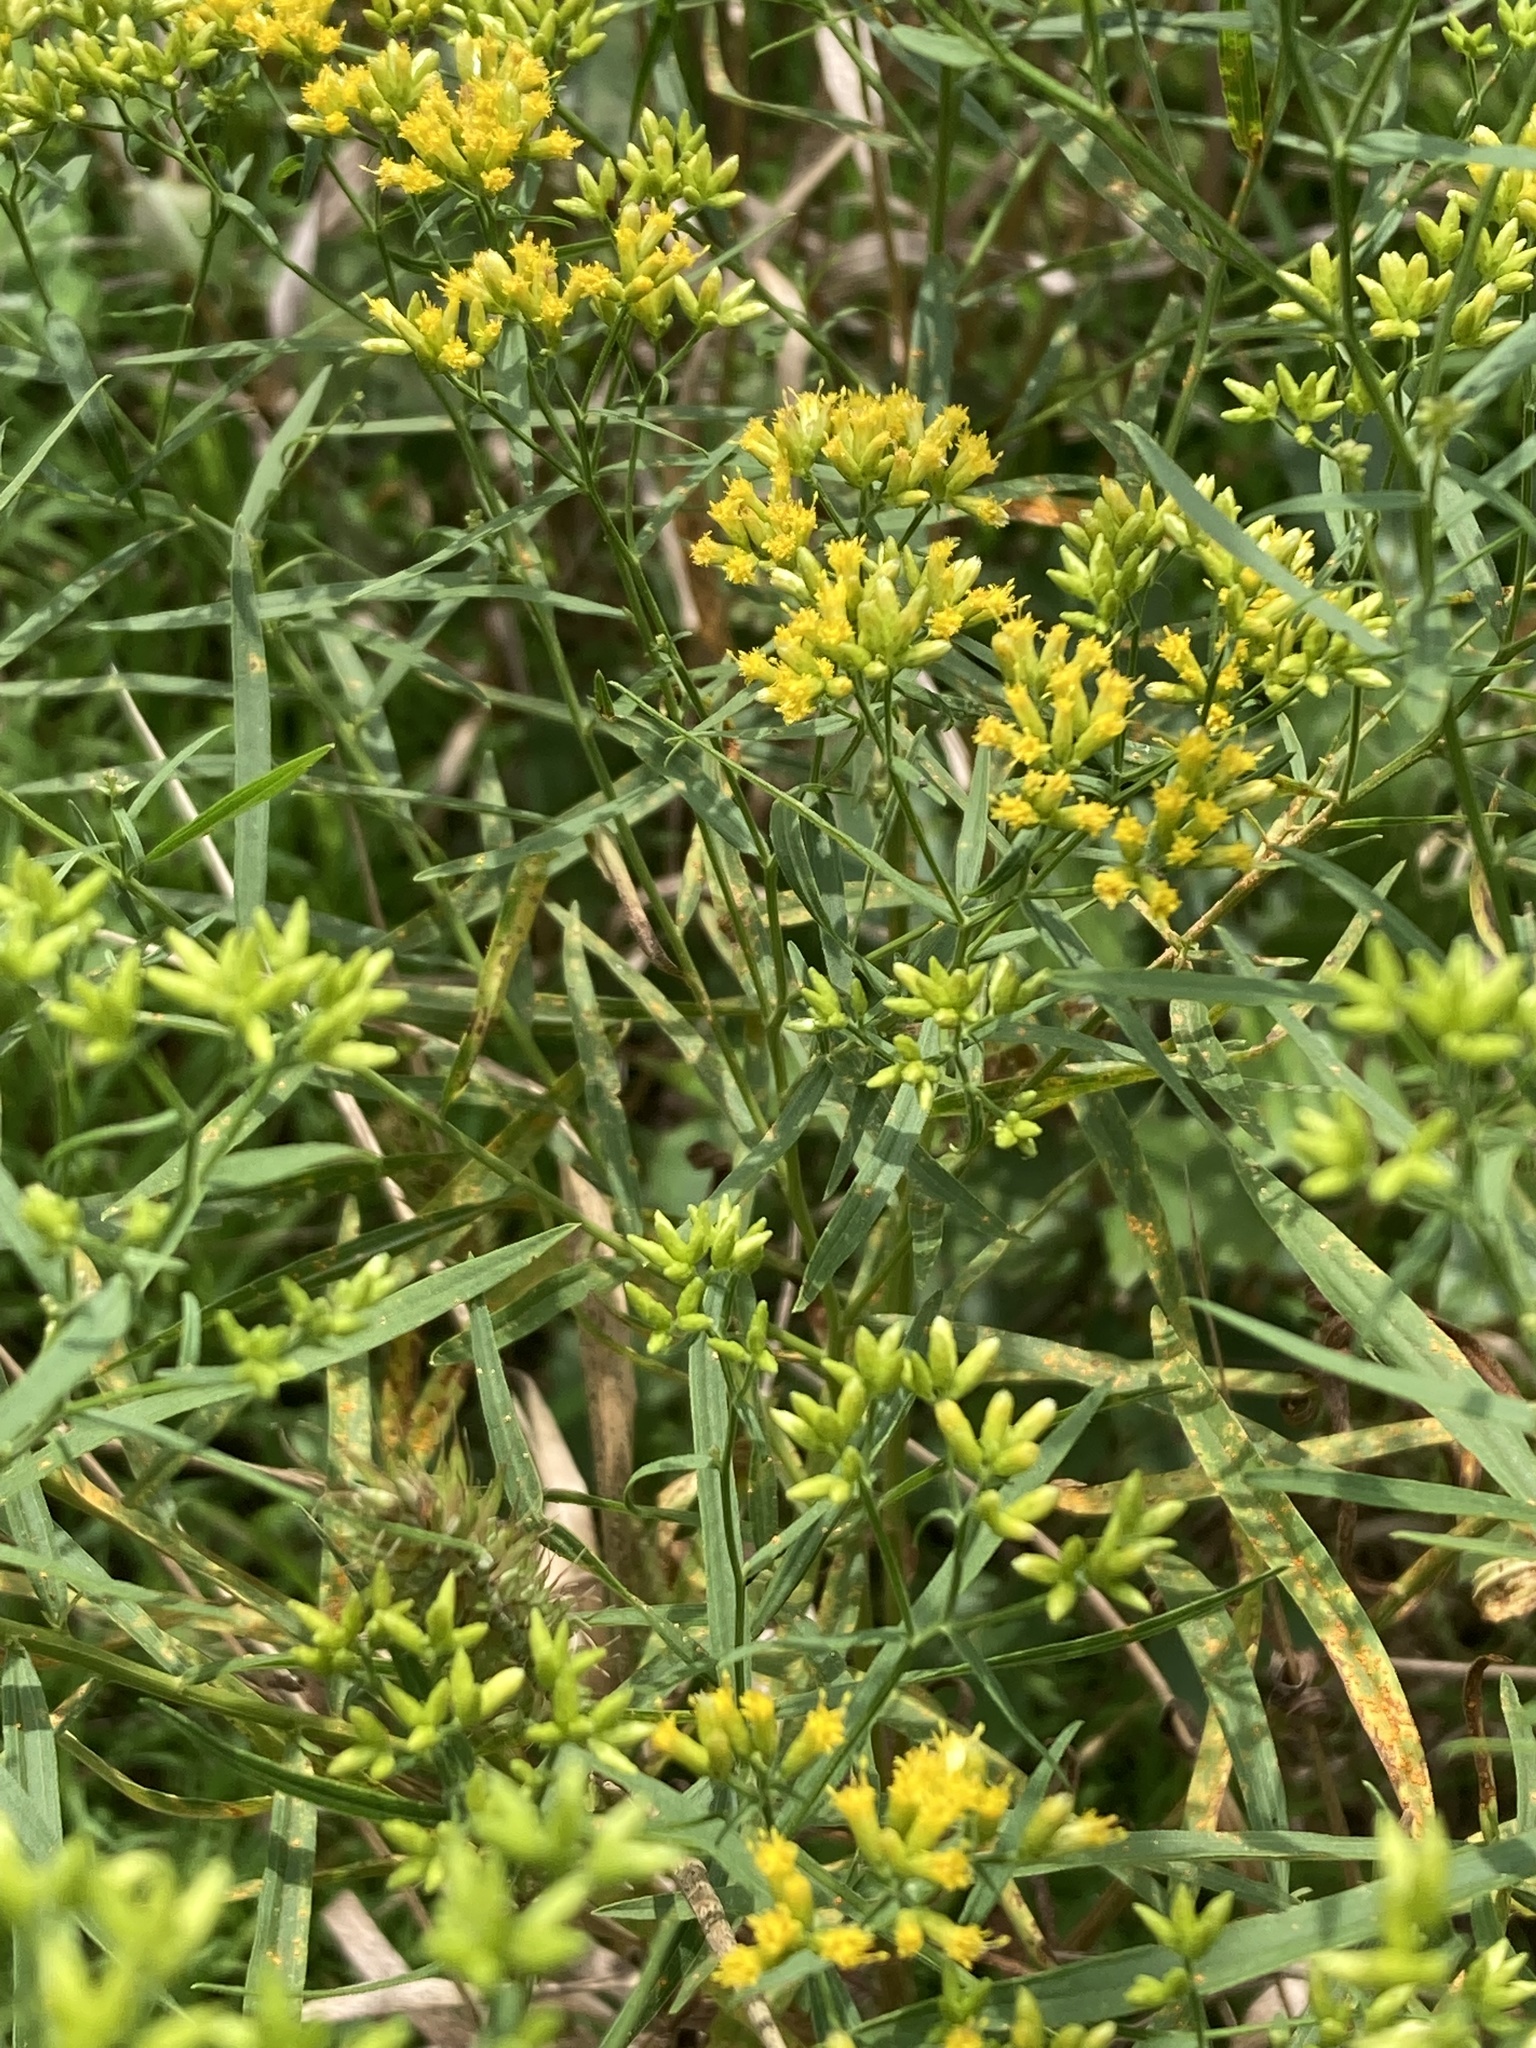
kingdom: Plantae
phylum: Tracheophyta
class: Magnoliopsida
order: Asterales
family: Asteraceae
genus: Euthamia
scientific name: Euthamia graminifolia
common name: Common goldentop
